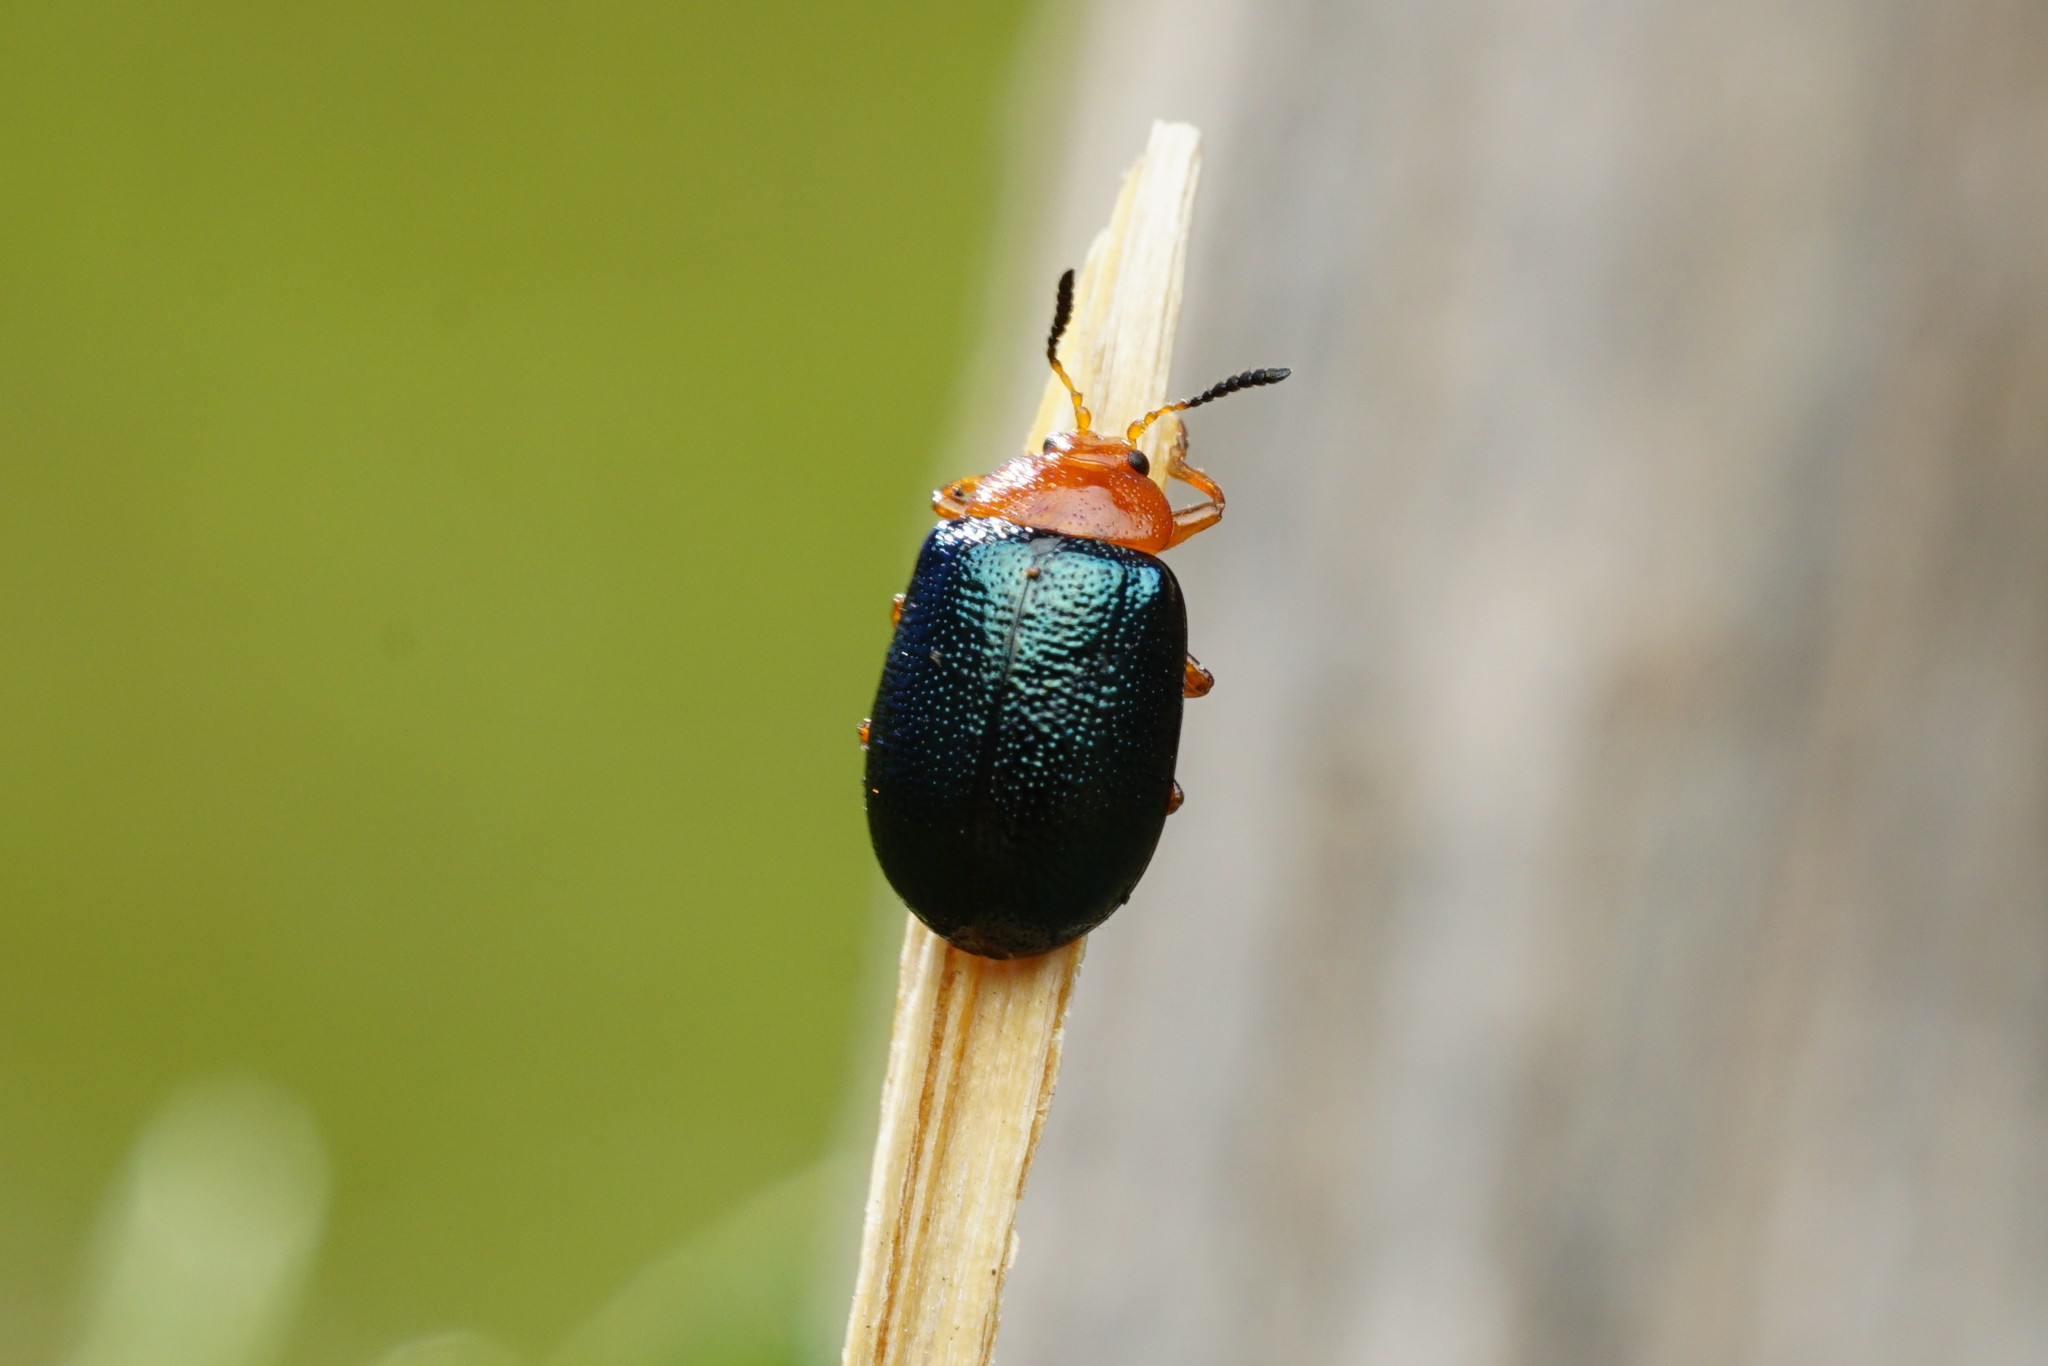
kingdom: Animalia
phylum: Arthropoda
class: Insecta
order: Coleoptera
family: Chrysomelidae
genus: Plagiodera
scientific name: Plagiodera arizonae
